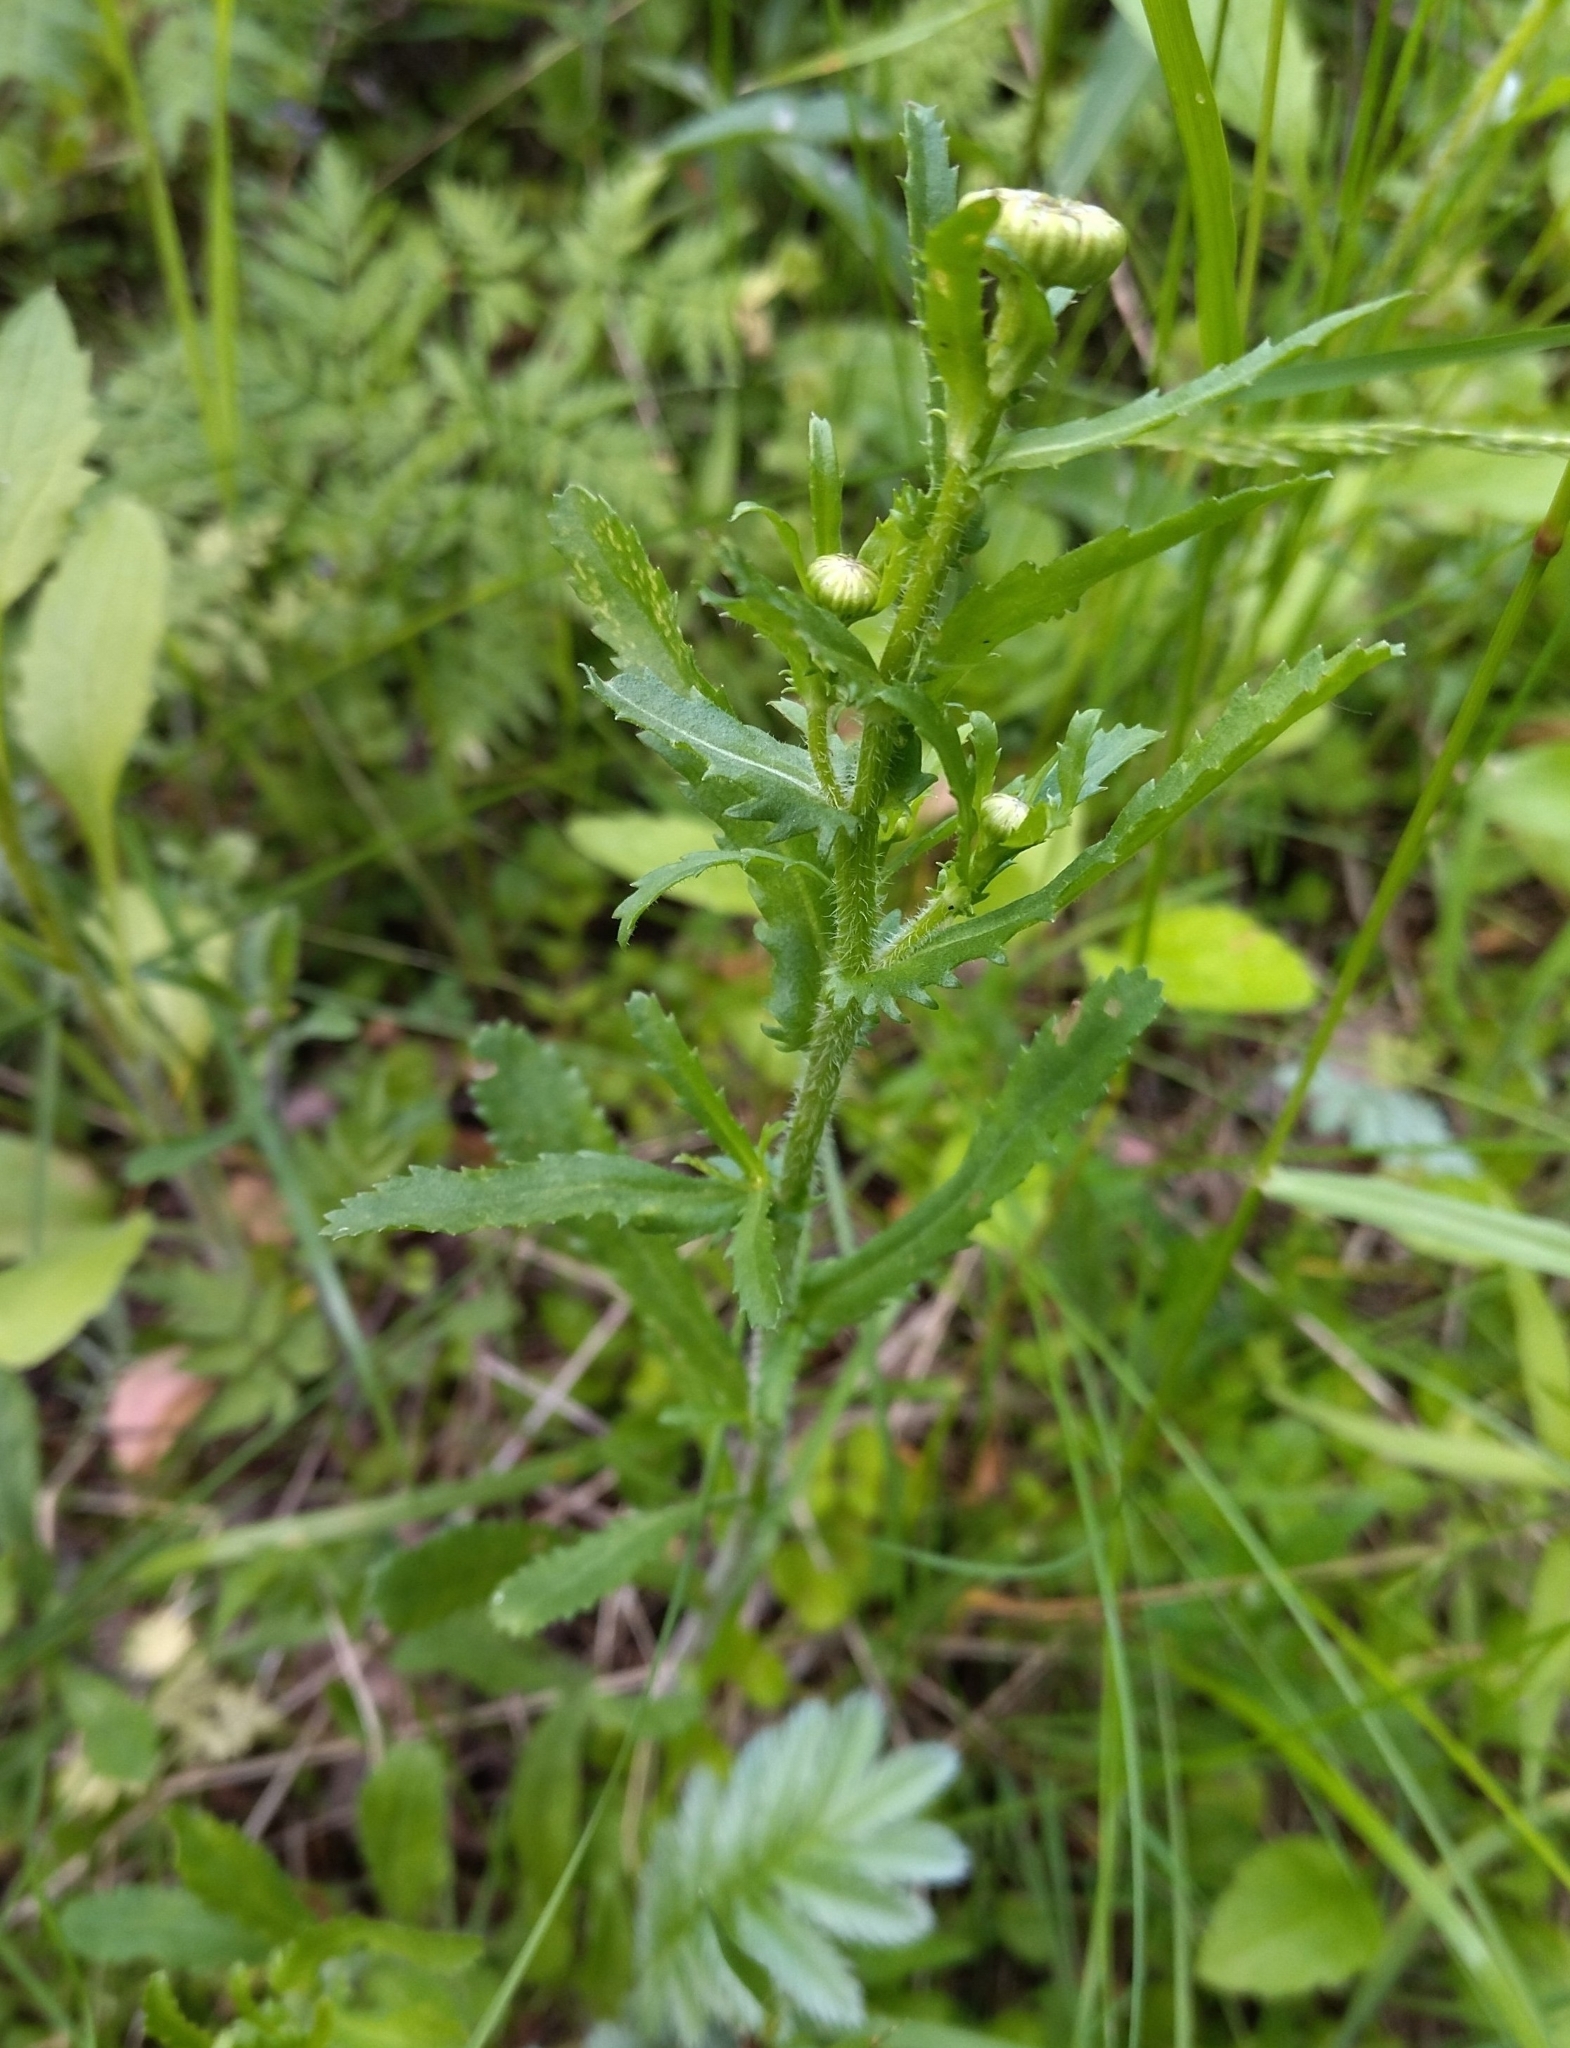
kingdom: Plantae
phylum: Tracheophyta
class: Magnoliopsida
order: Asterales
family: Asteraceae
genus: Leucanthemum
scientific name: Leucanthemum vulgare
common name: Oxeye daisy
